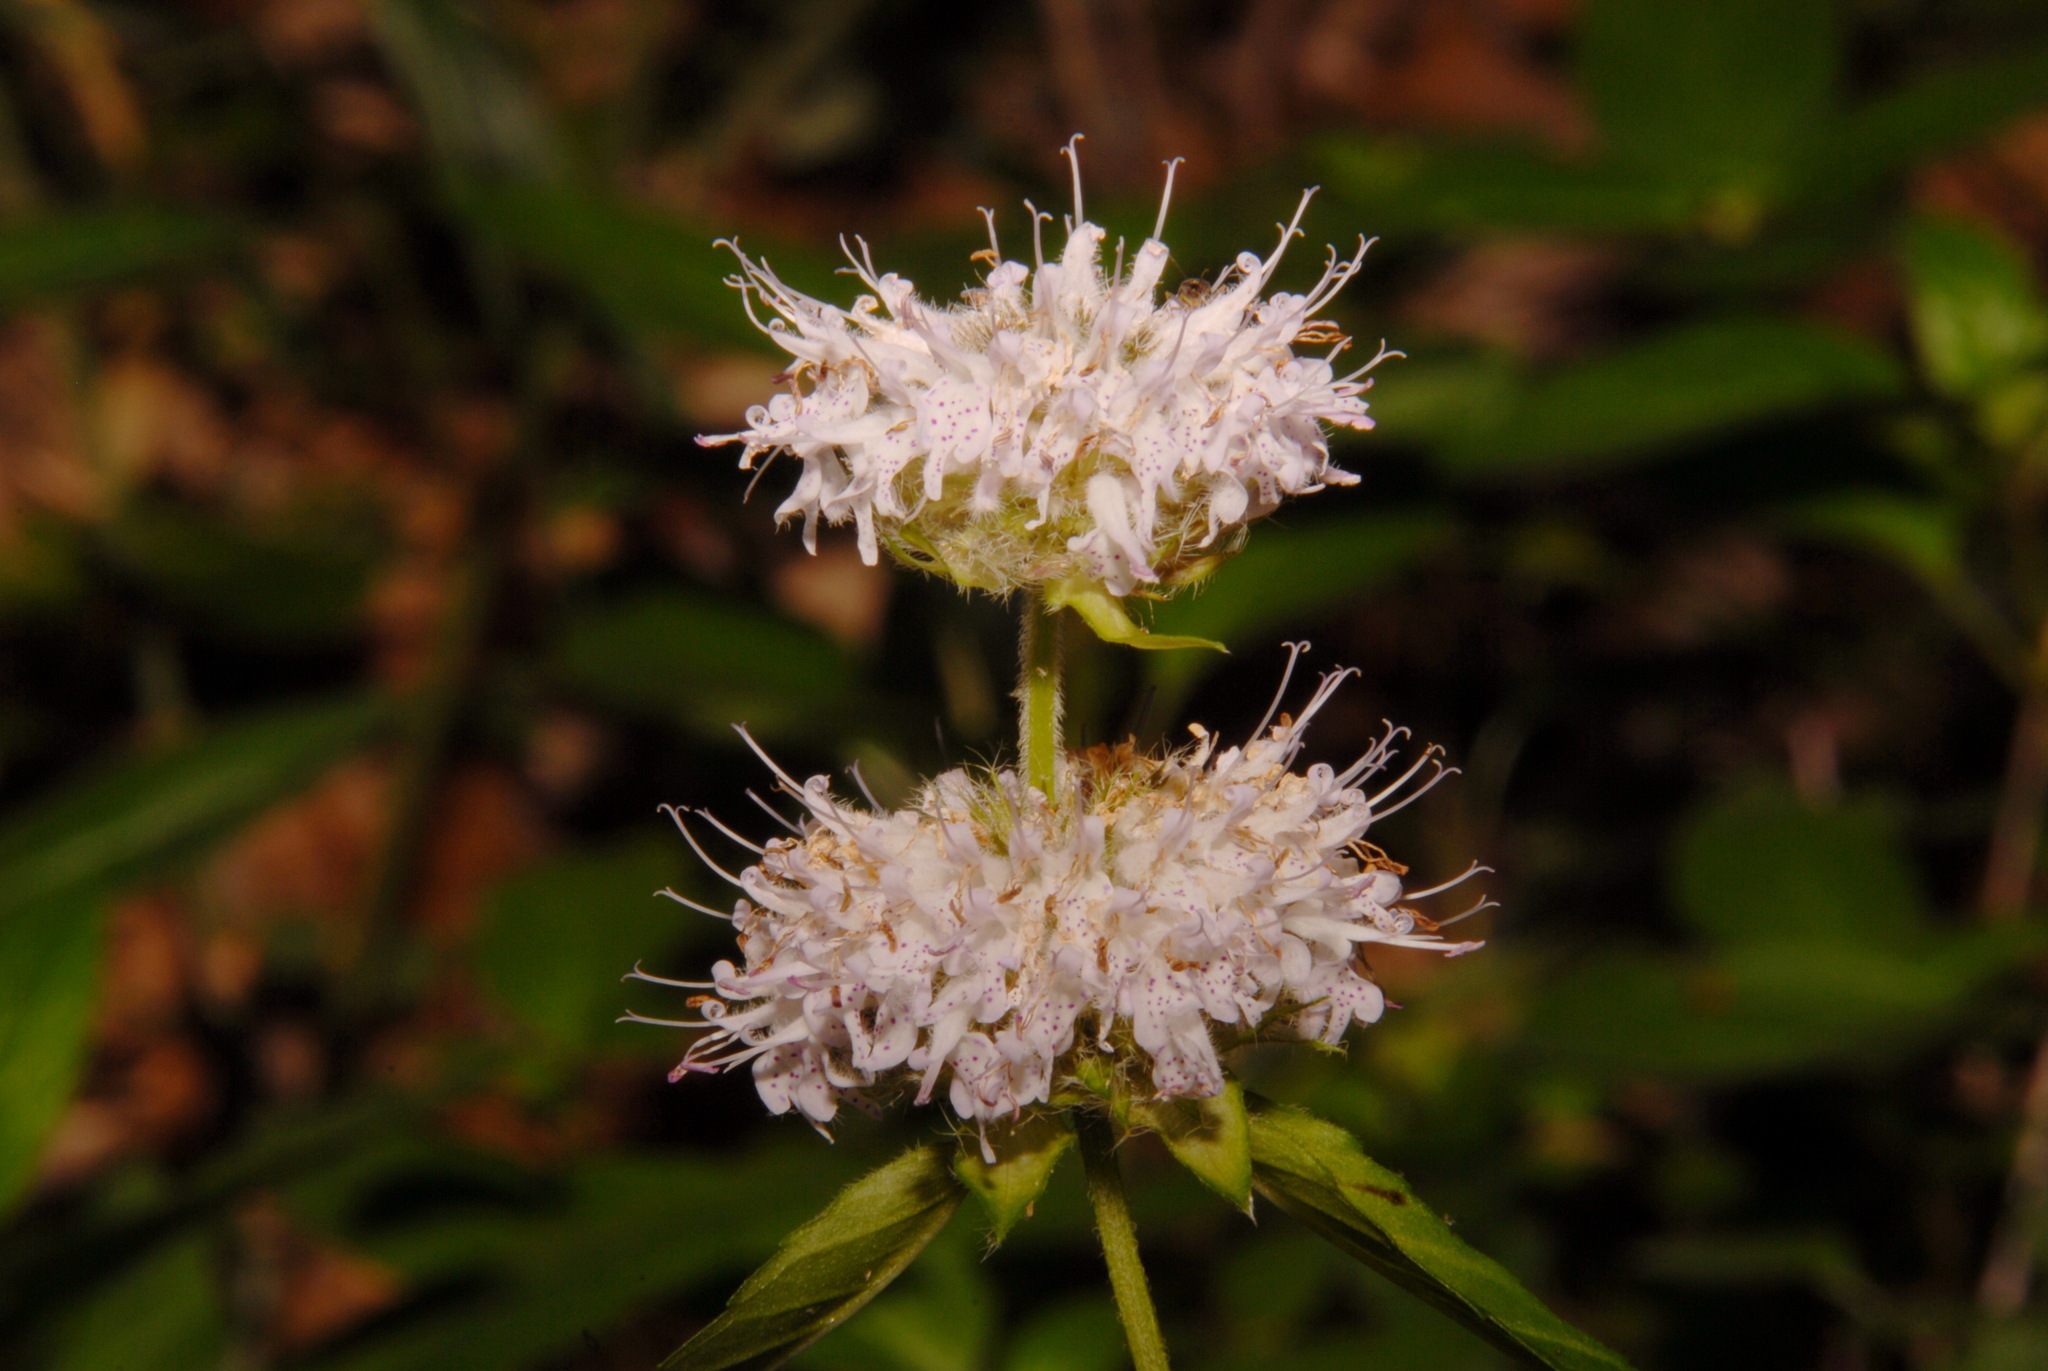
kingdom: Plantae
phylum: Tracheophyta
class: Magnoliopsida
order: Lamiales
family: Lamiaceae
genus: Blephilia
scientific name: Blephilia subnuda
